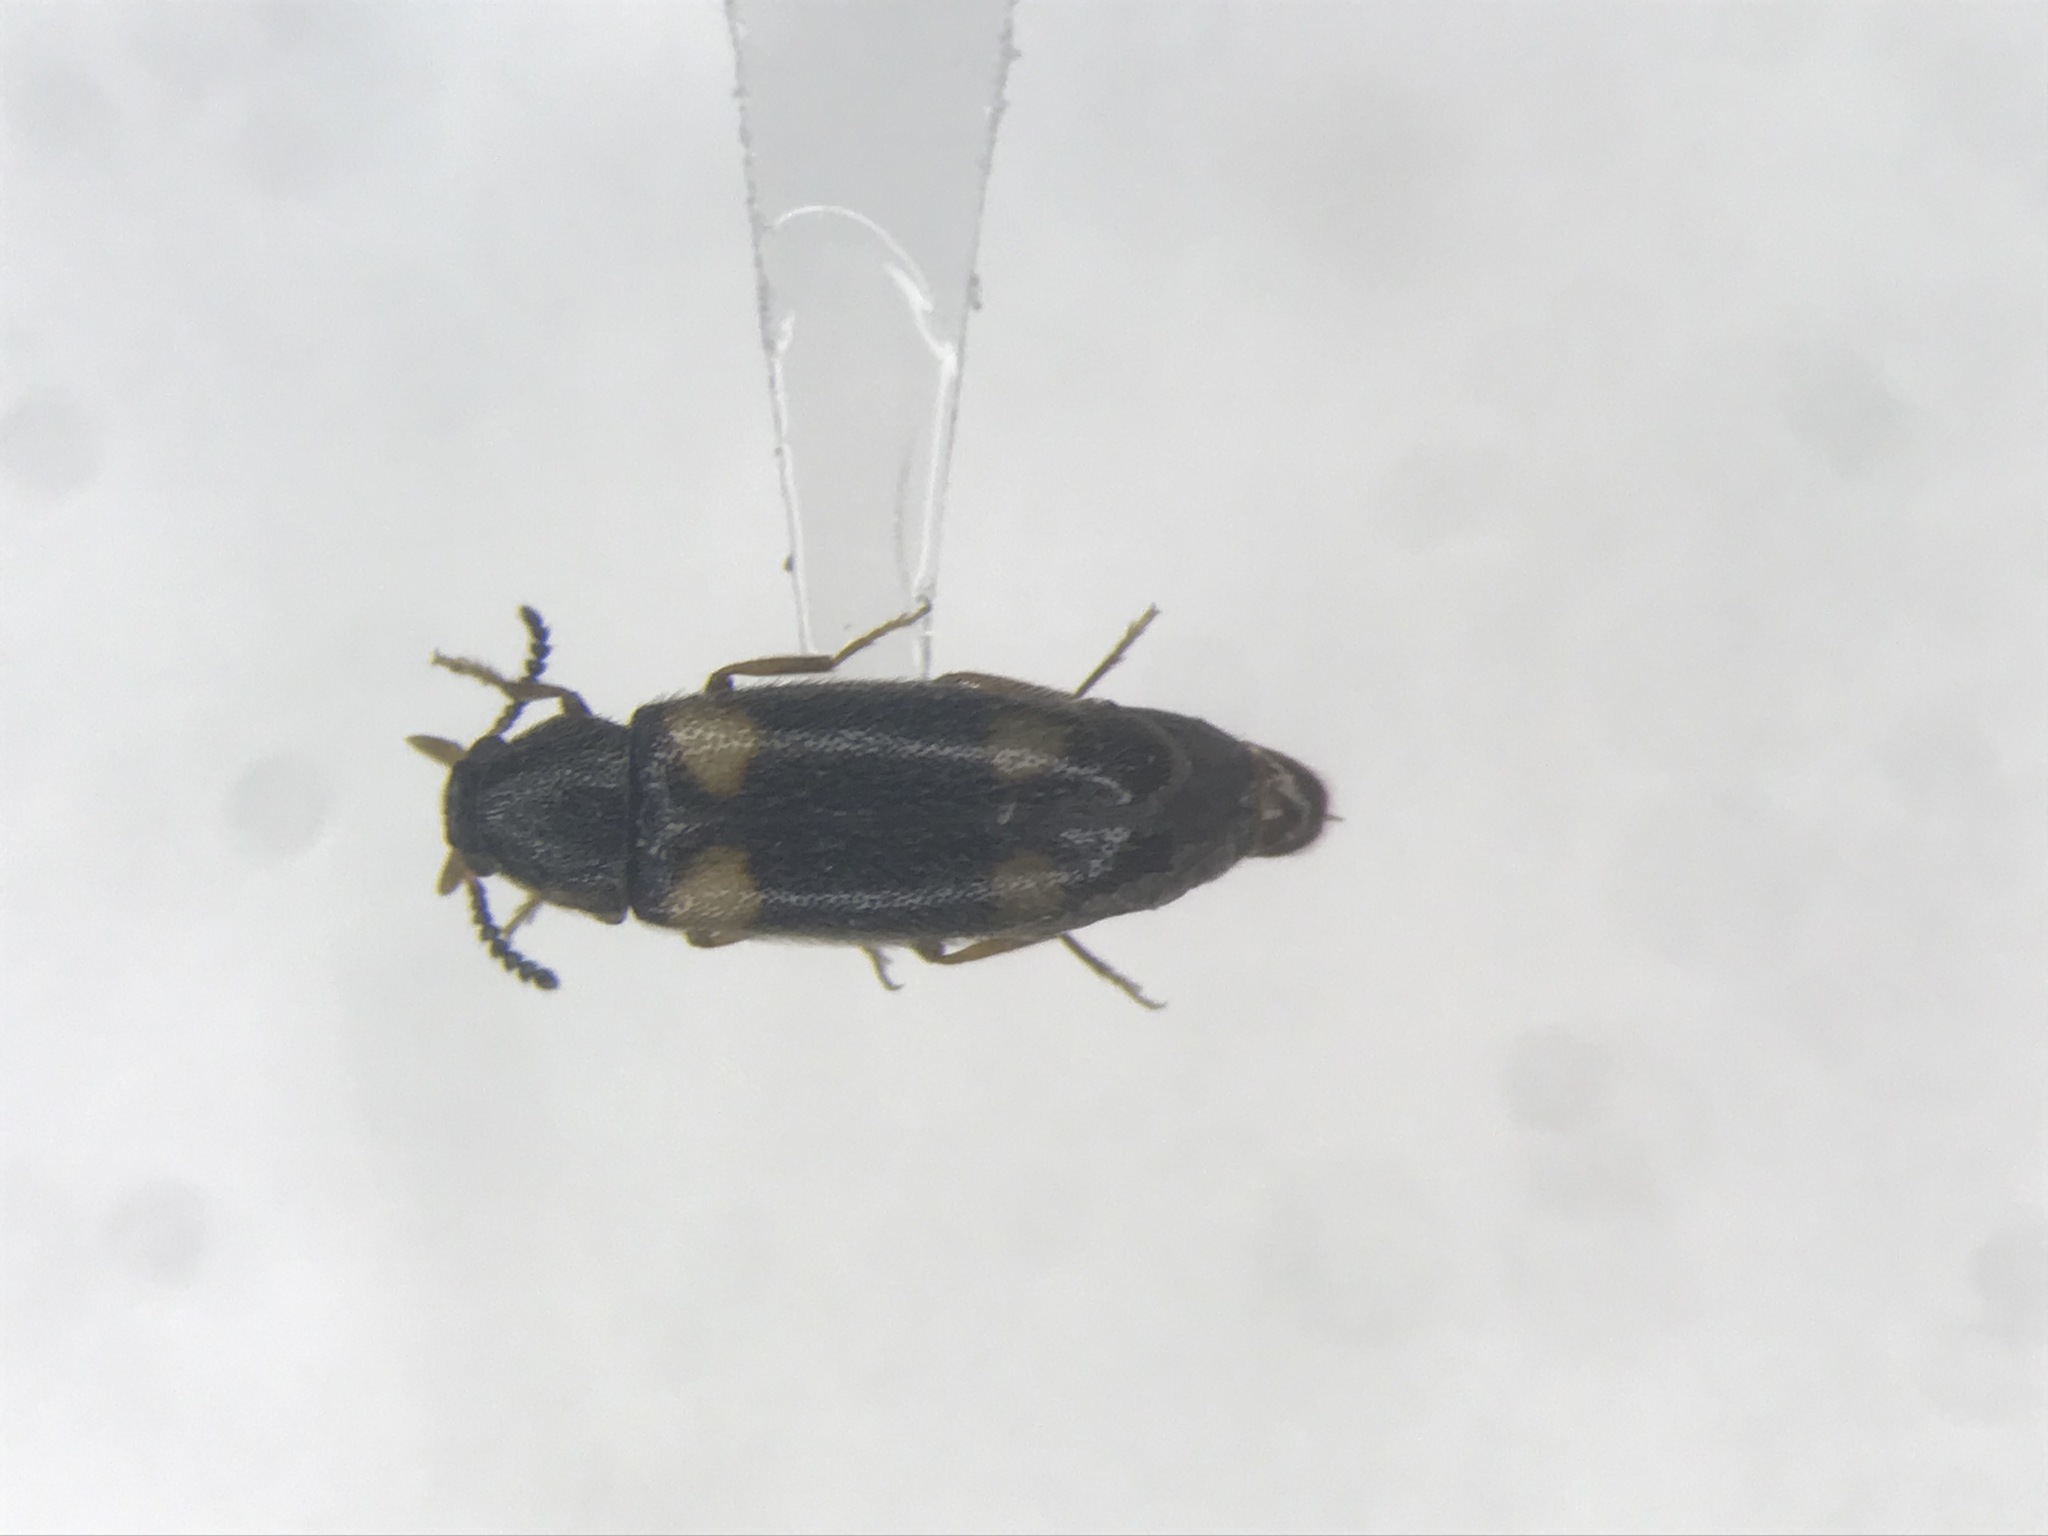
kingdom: Animalia
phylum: Arthropoda
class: Insecta
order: Coleoptera
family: Melandryidae
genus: Spilotus
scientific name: Spilotus quadripustulatus
